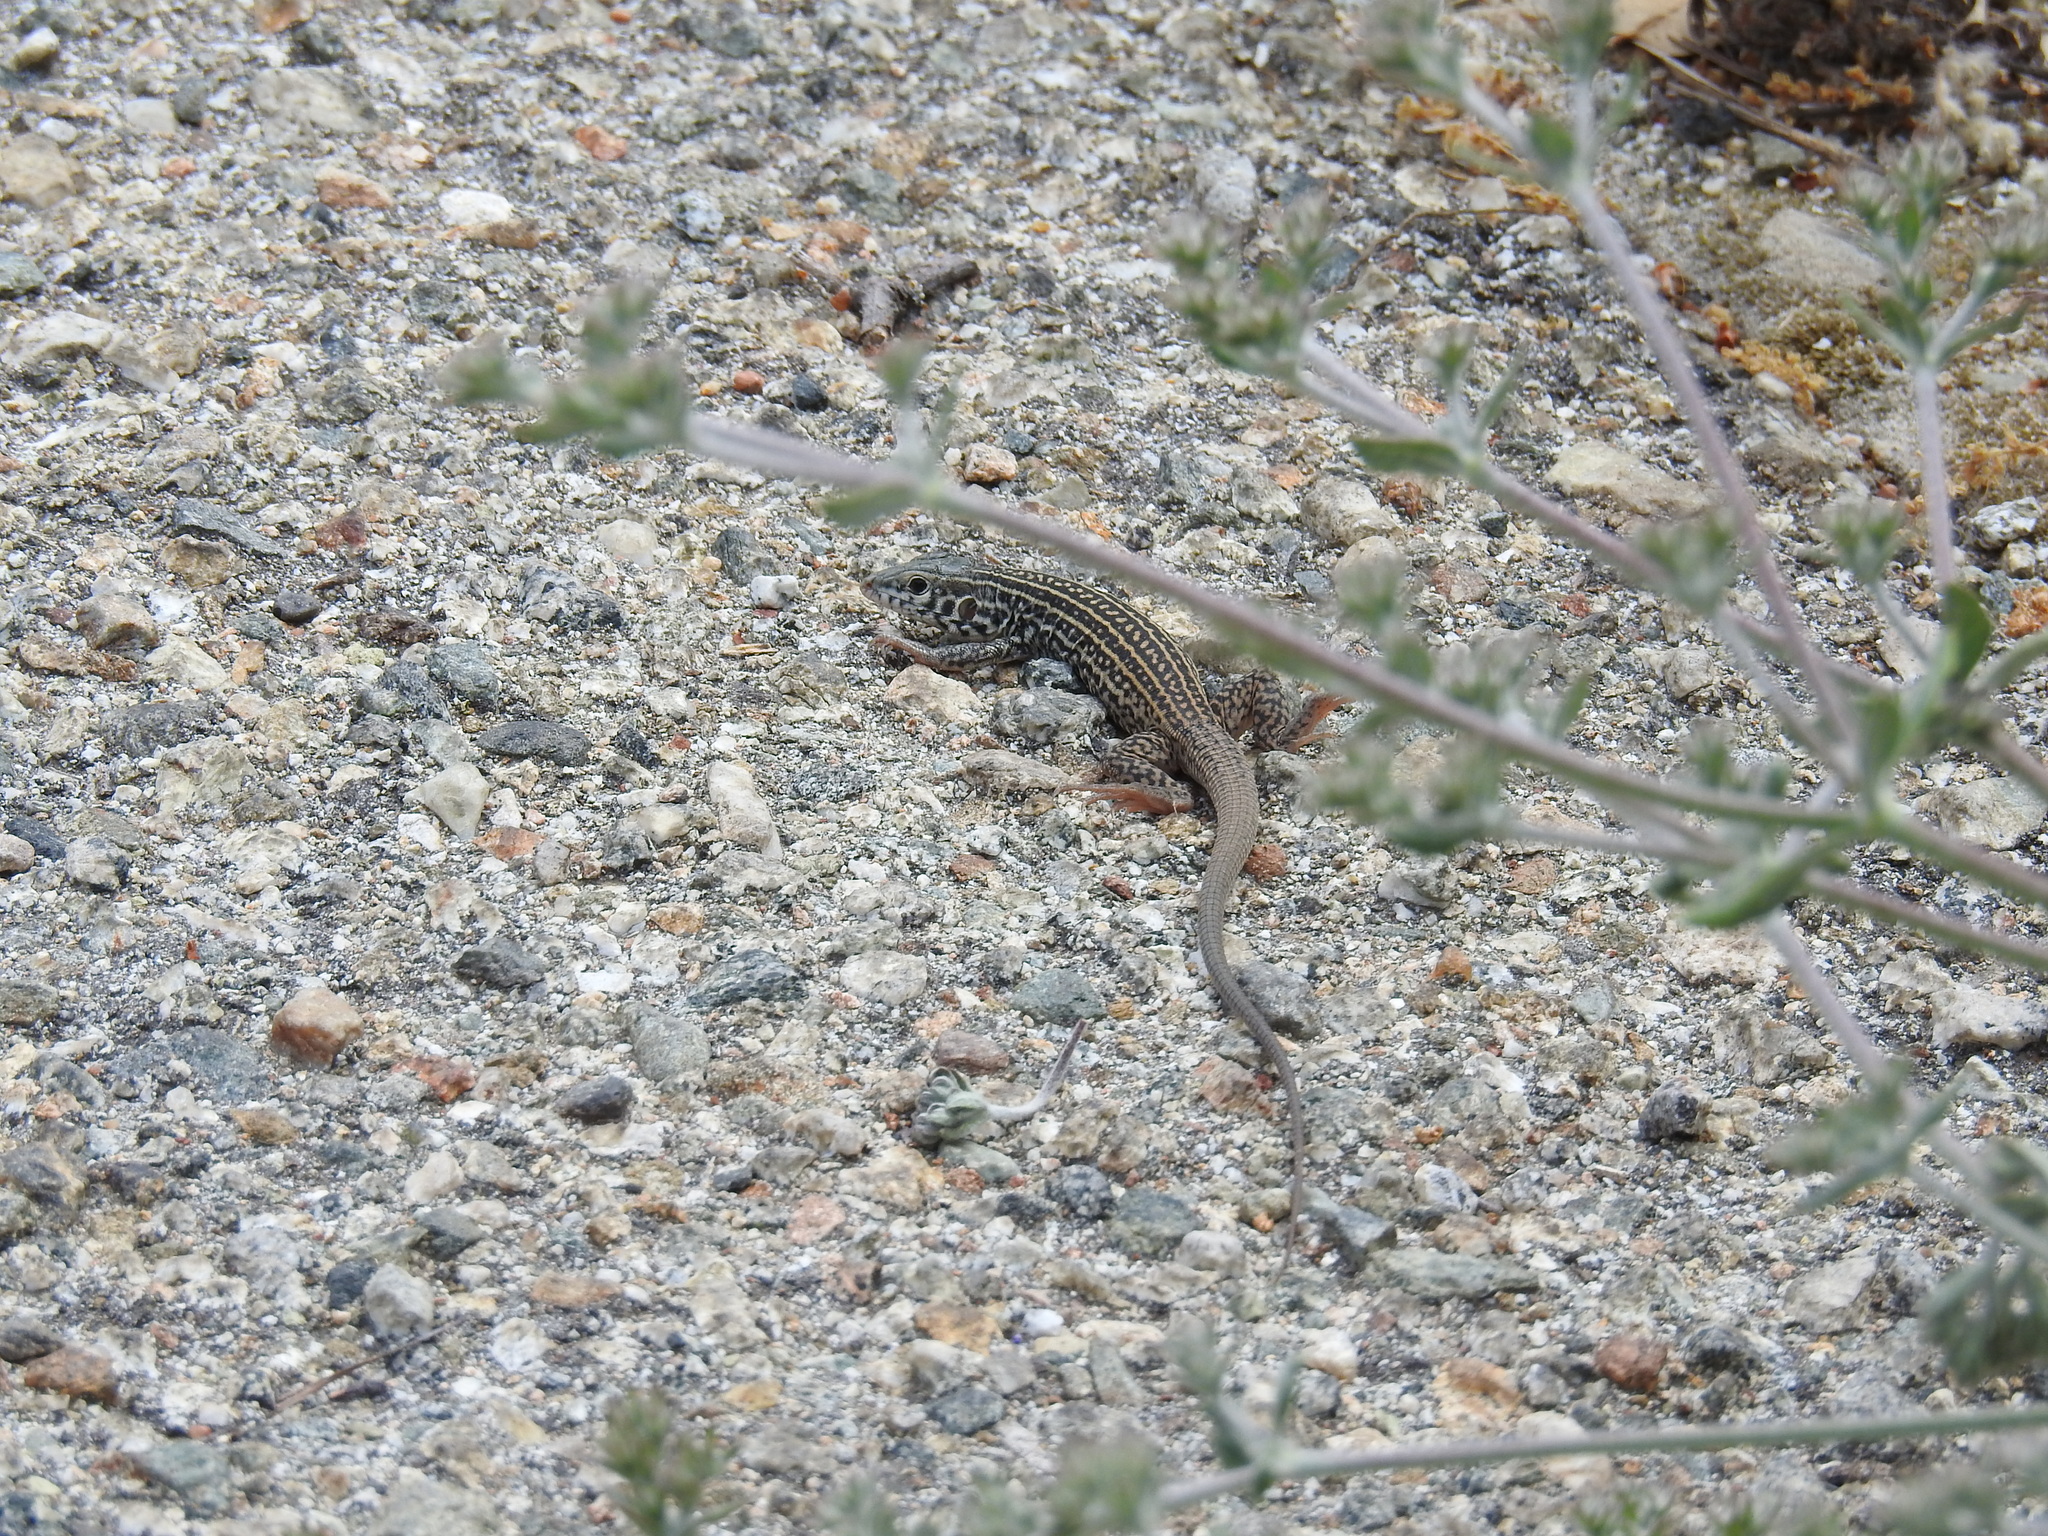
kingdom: Animalia
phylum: Chordata
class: Squamata
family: Teiidae
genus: Aspidoscelis
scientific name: Aspidoscelis tigris
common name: Tiger whiptail
